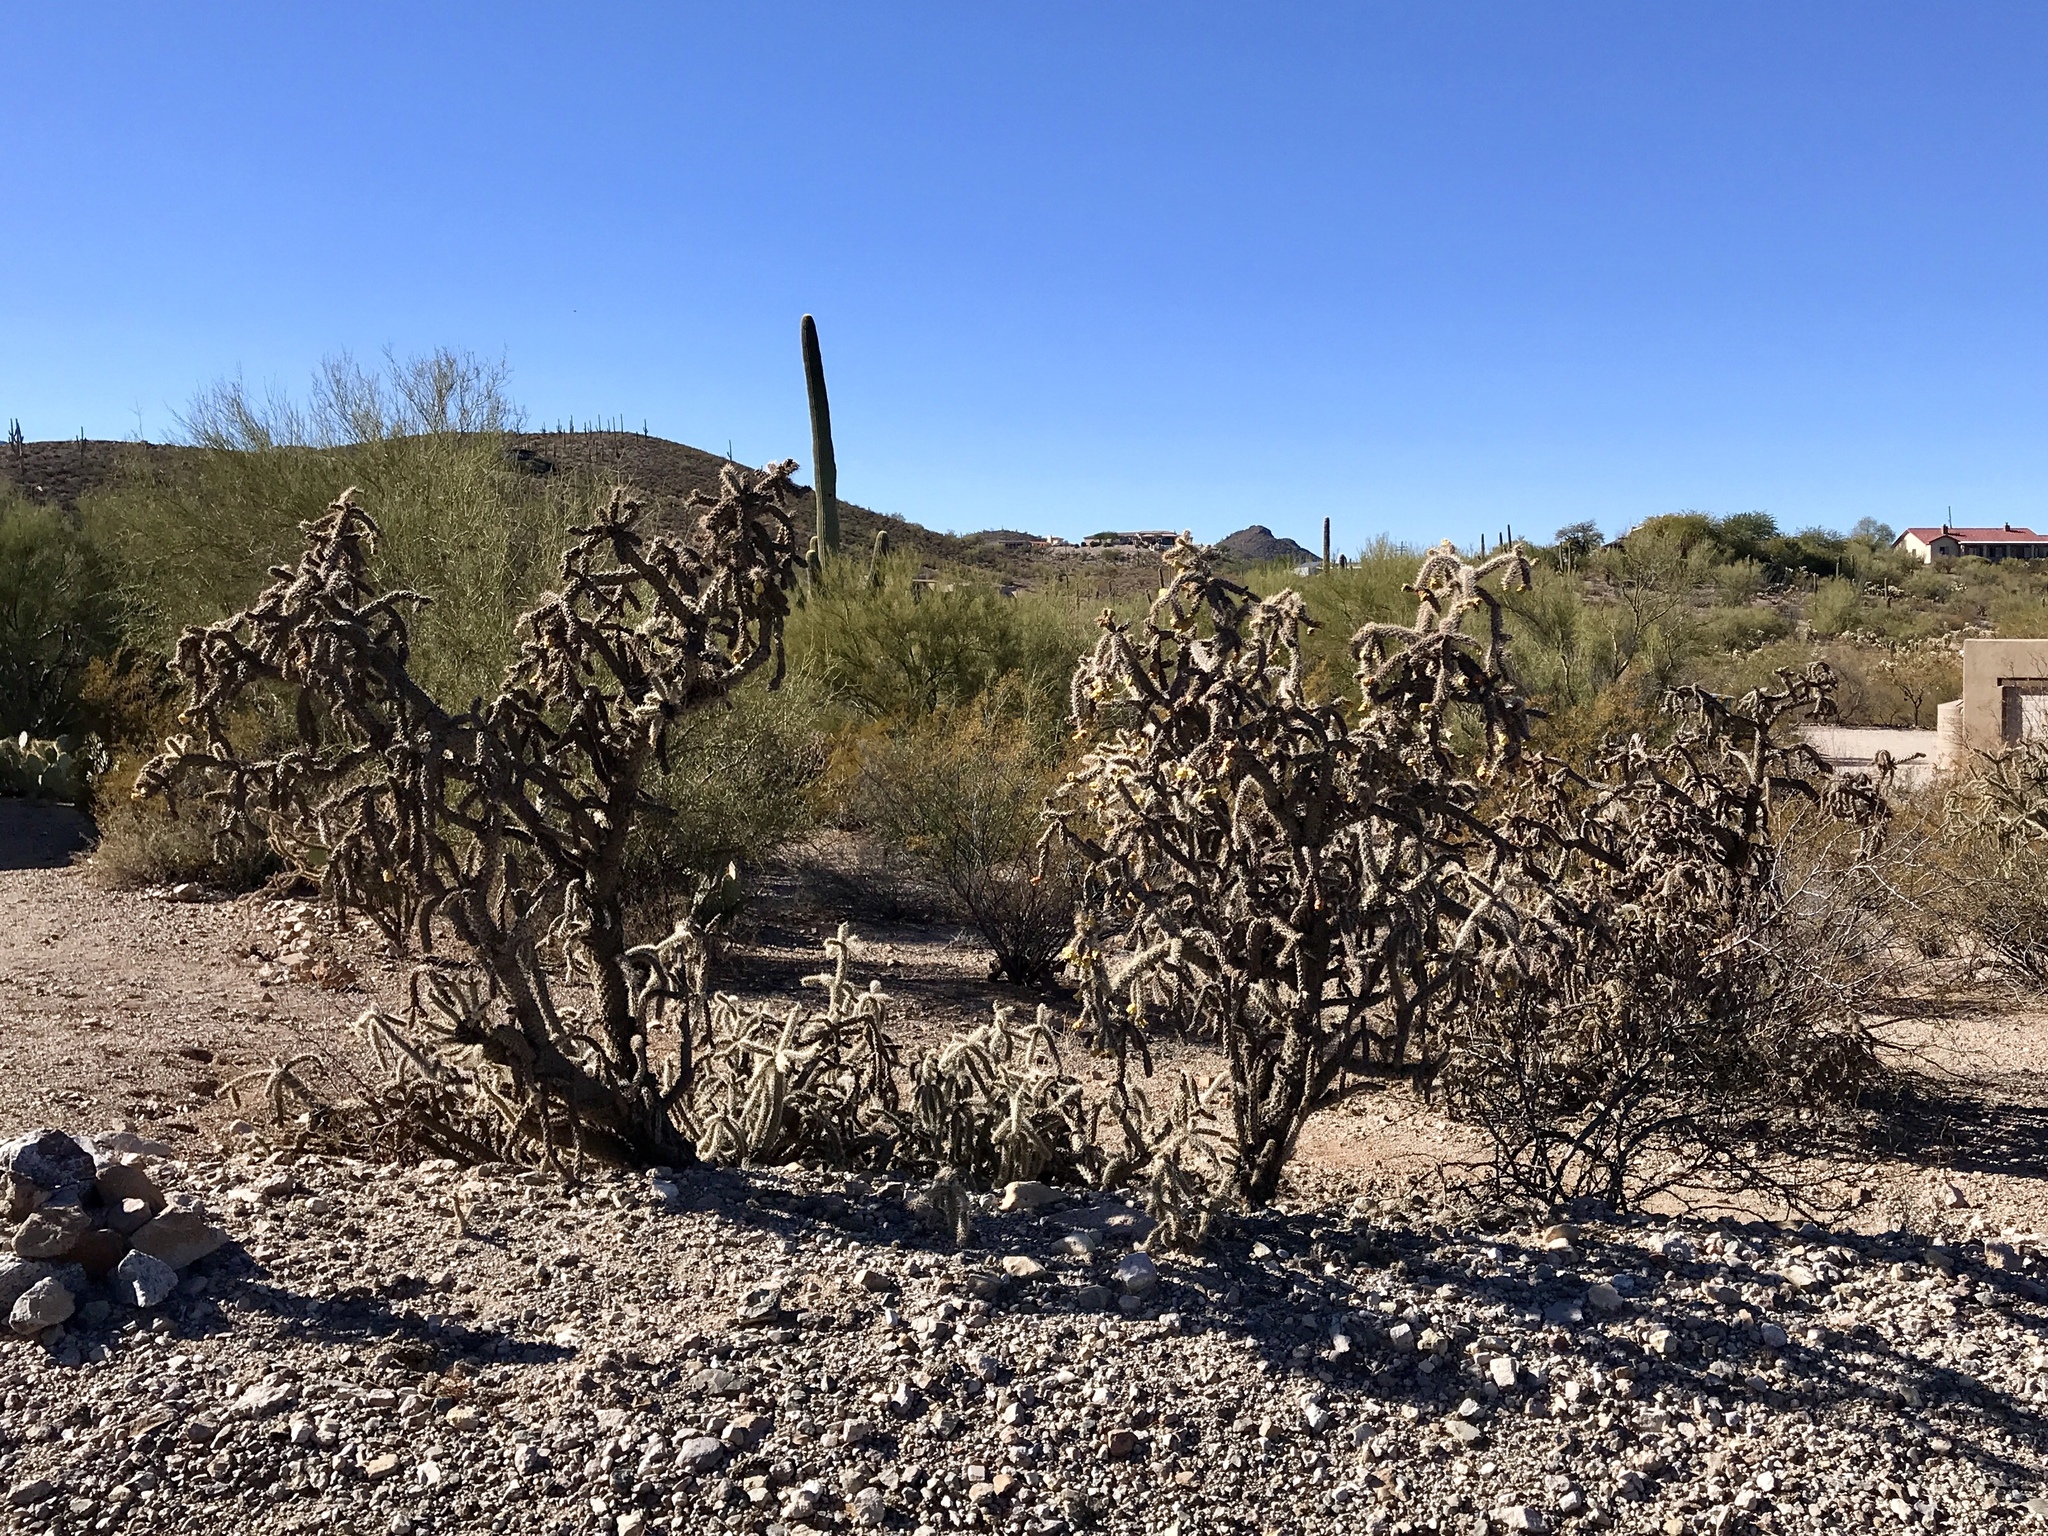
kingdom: Plantae
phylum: Tracheophyta
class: Magnoliopsida
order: Caryophyllales
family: Cactaceae
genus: Cylindropuntia
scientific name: Cylindropuntia imbricata
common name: Candelabrum cactus
